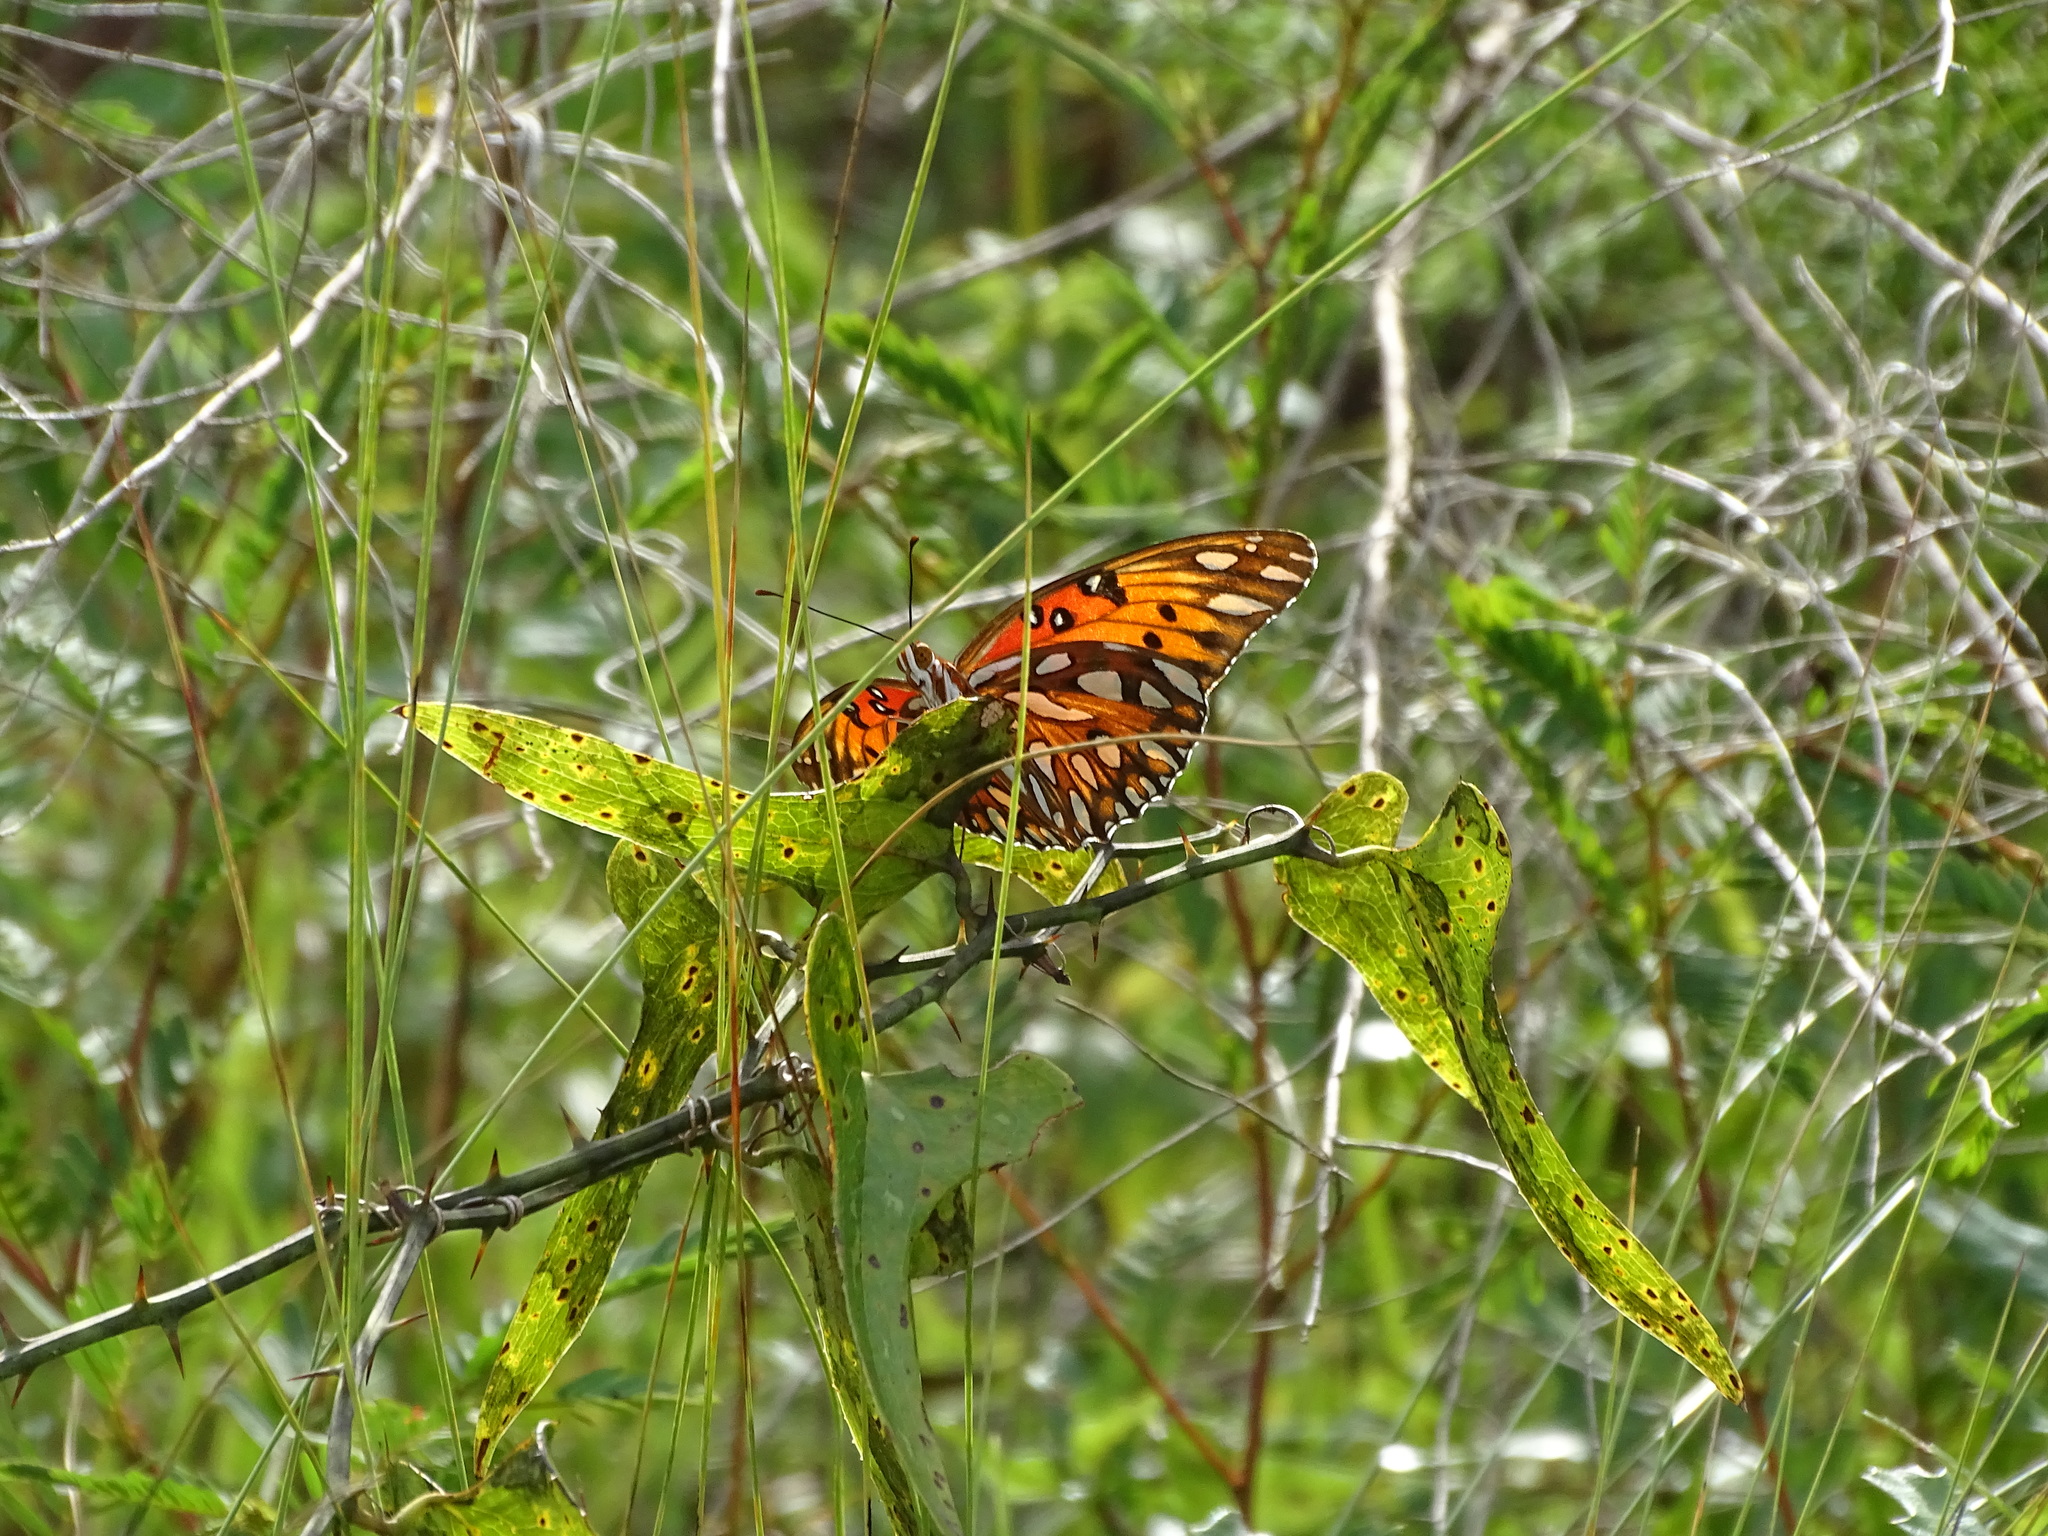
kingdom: Animalia
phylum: Arthropoda
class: Insecta
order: Lepidoptera
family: Nymphalidae
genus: Dione
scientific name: Dione vanillae
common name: Gulf fritillary
